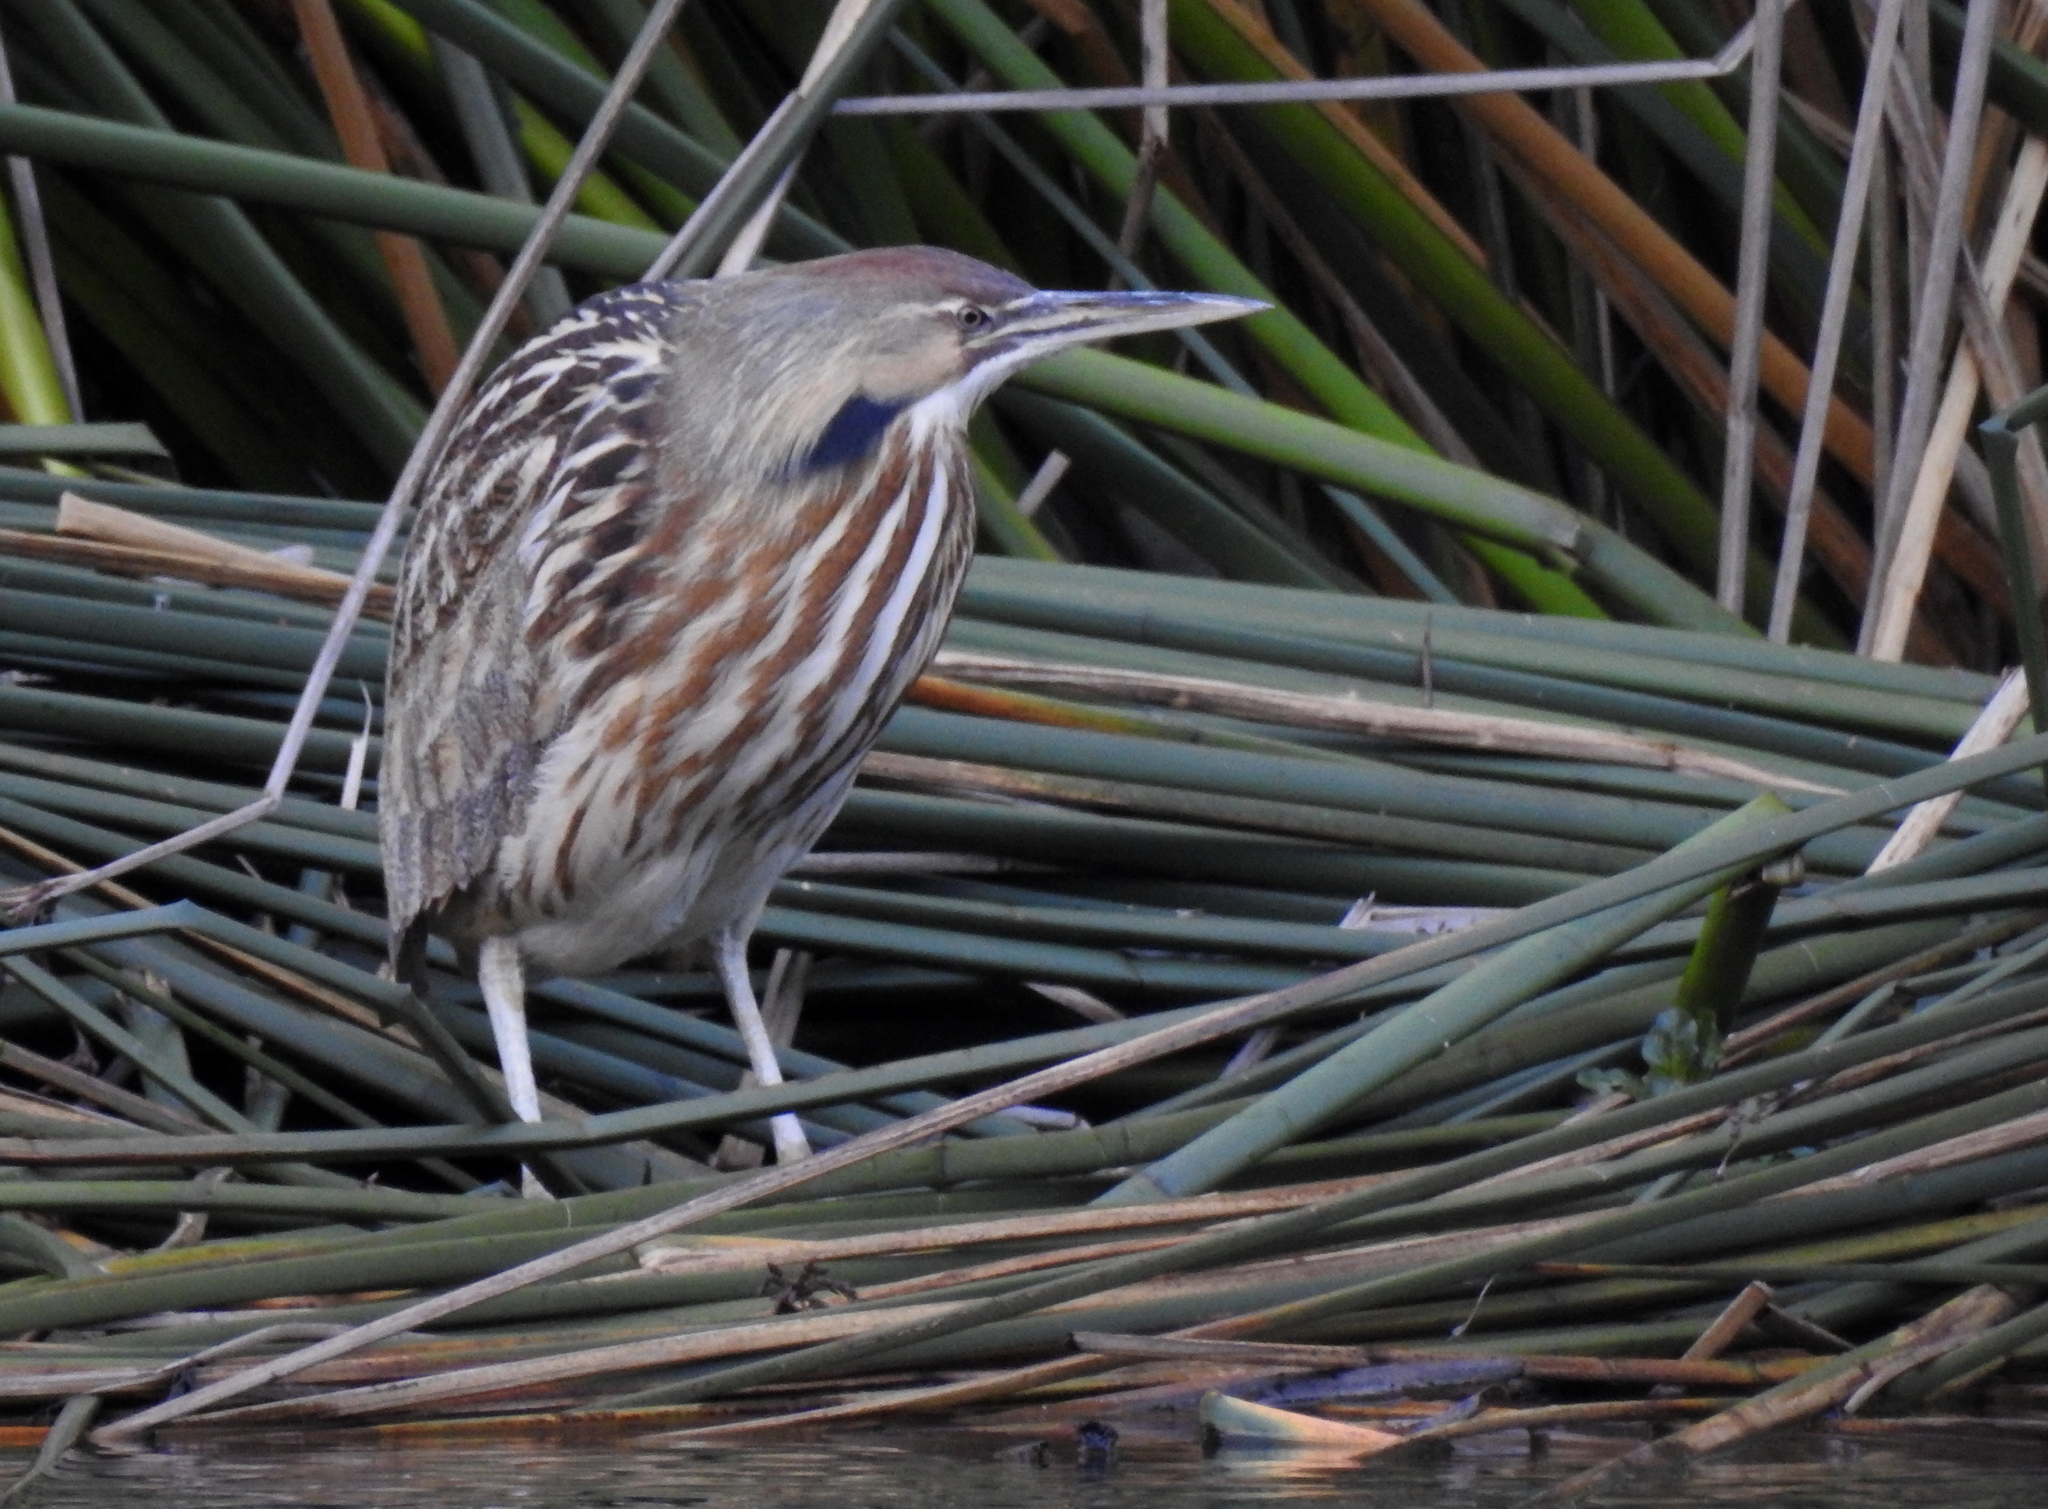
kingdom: Animalia
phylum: Chordata
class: Aves
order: Pelecaniformes
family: Ardeidae
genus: Botaurus
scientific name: Botaurus lentiginosus
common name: American bittern
